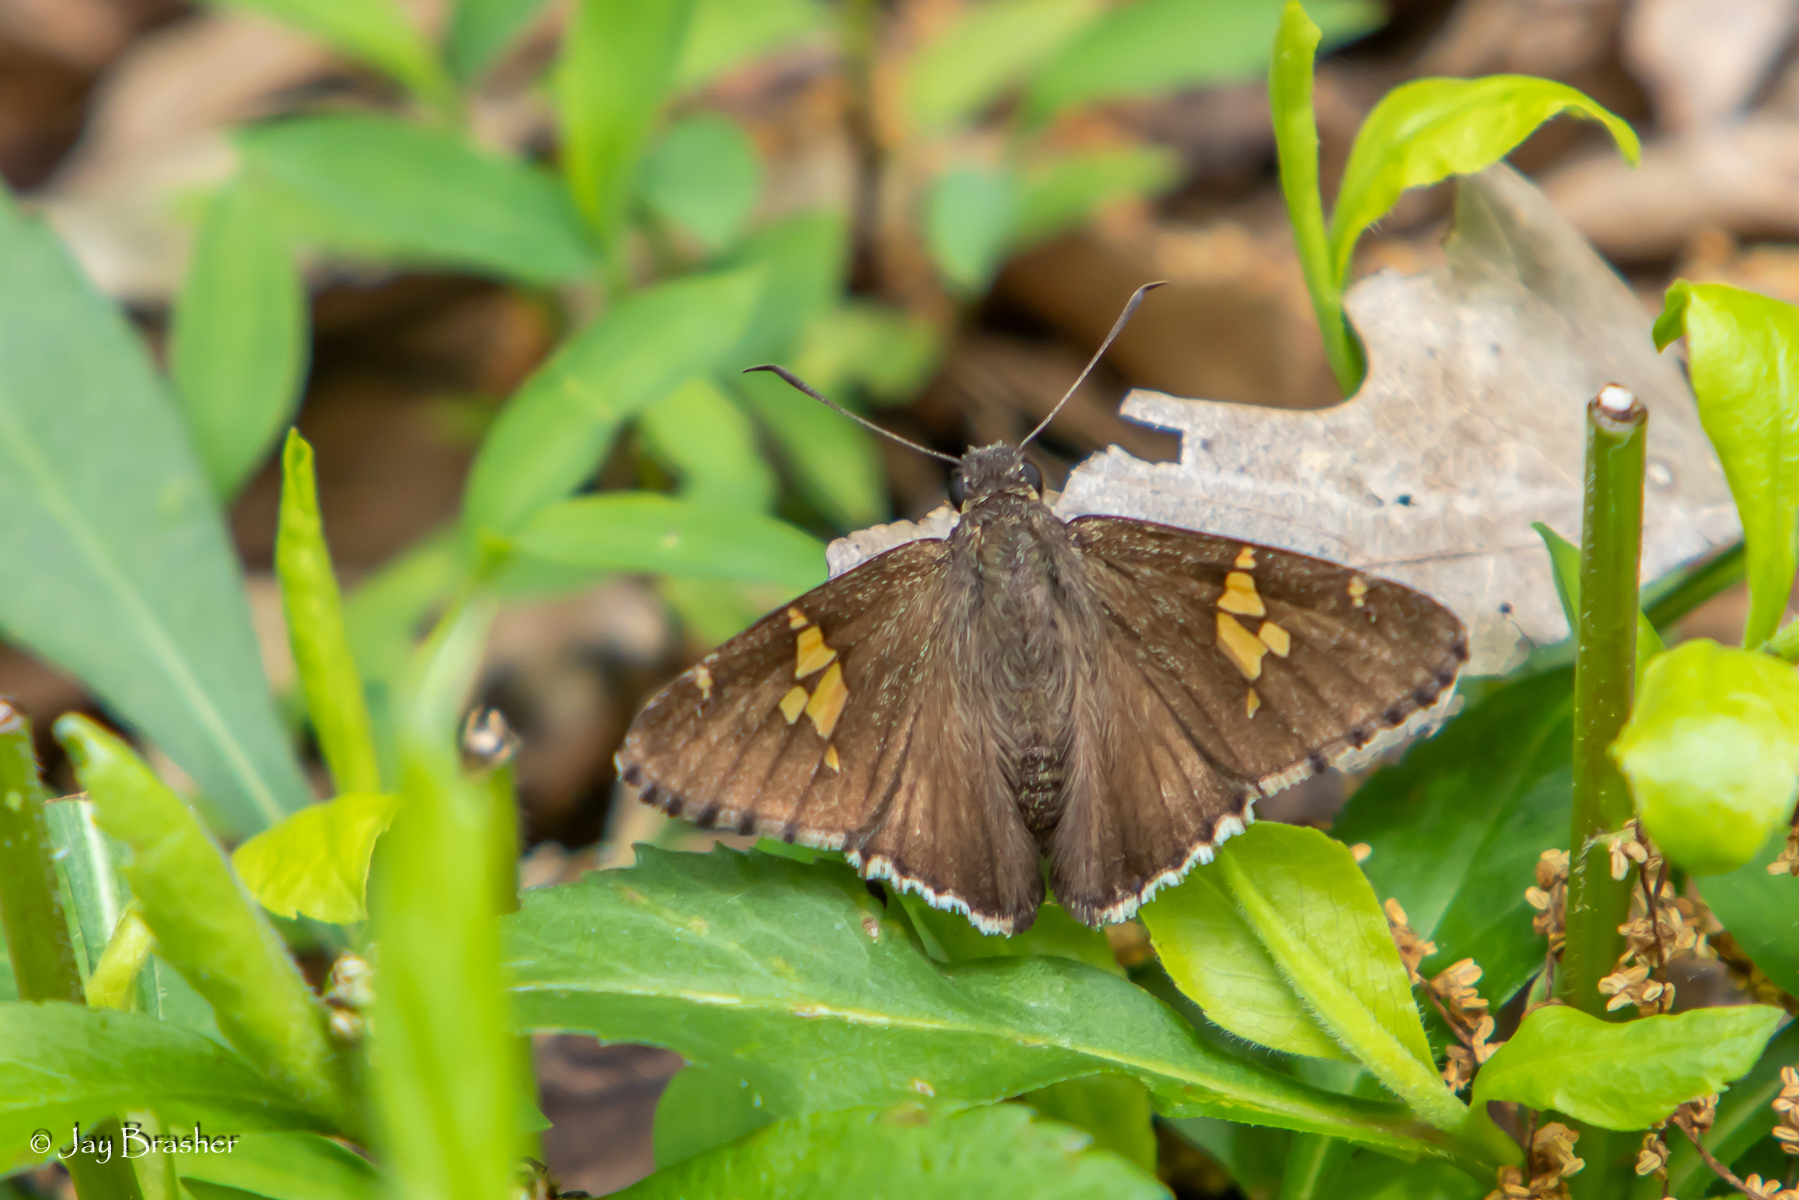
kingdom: Animalia
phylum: Arthropoda
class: Insecta
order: Lepidoptera
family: Hesperiidae
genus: Thorybes
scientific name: Thorybes lyciades
